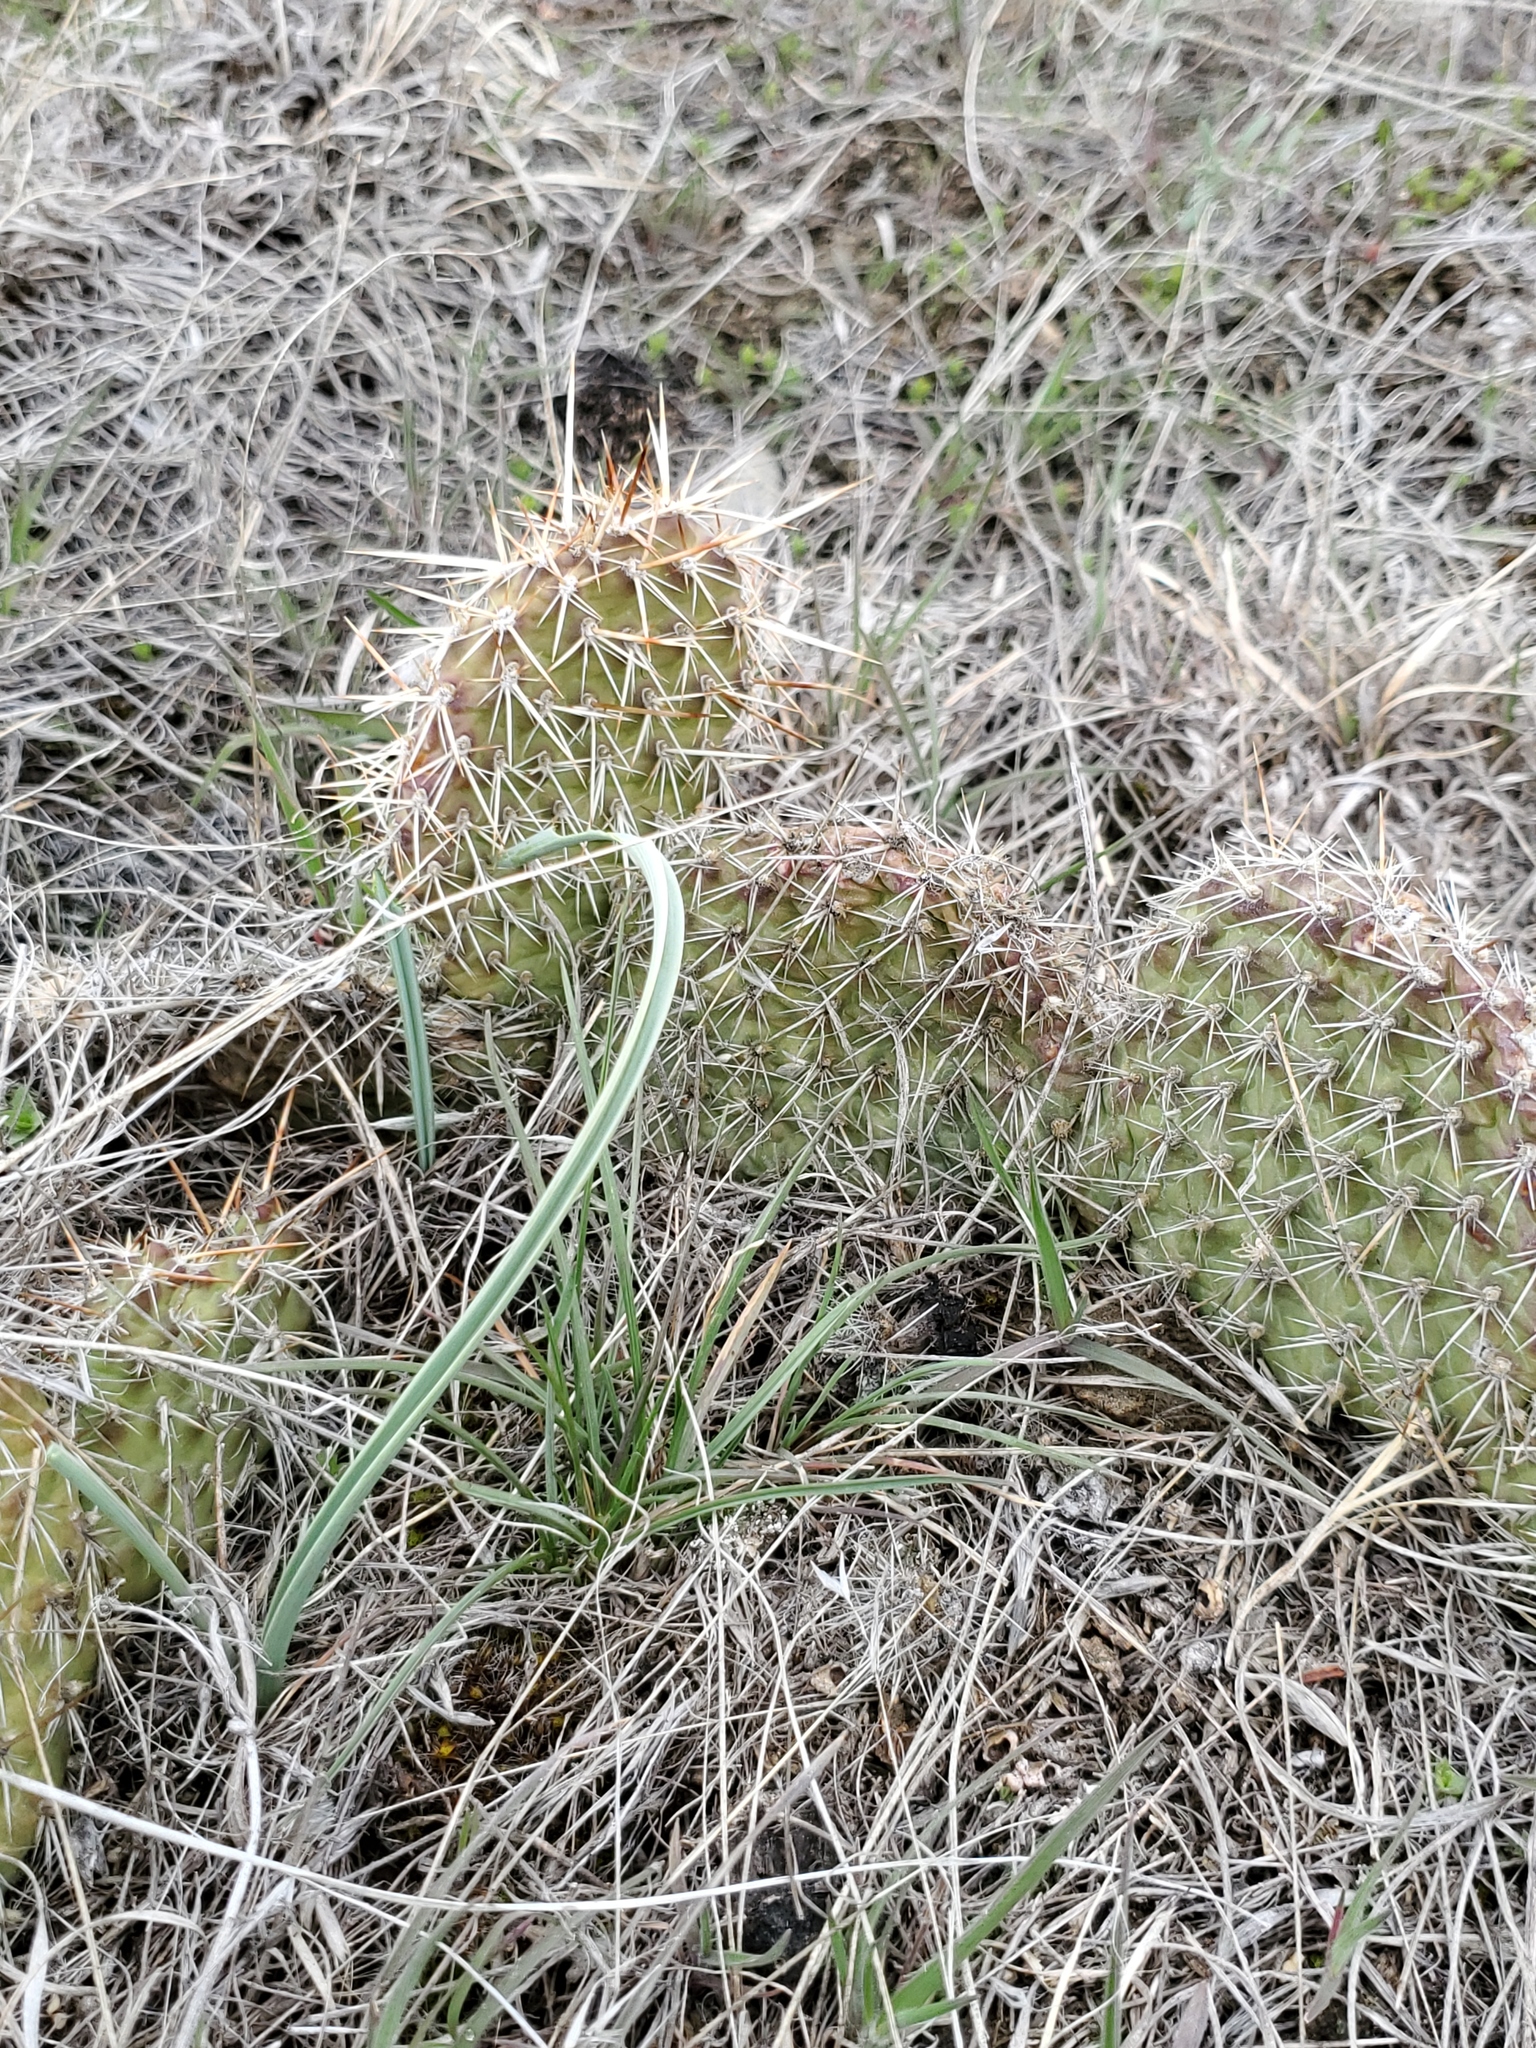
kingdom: Plantae
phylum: Tracheophyta
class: Magnoliopsida
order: Caryophyllales
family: Cactaceae
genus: Opuntia
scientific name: Opuntia polyacantha
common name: Plains prickly-pear
